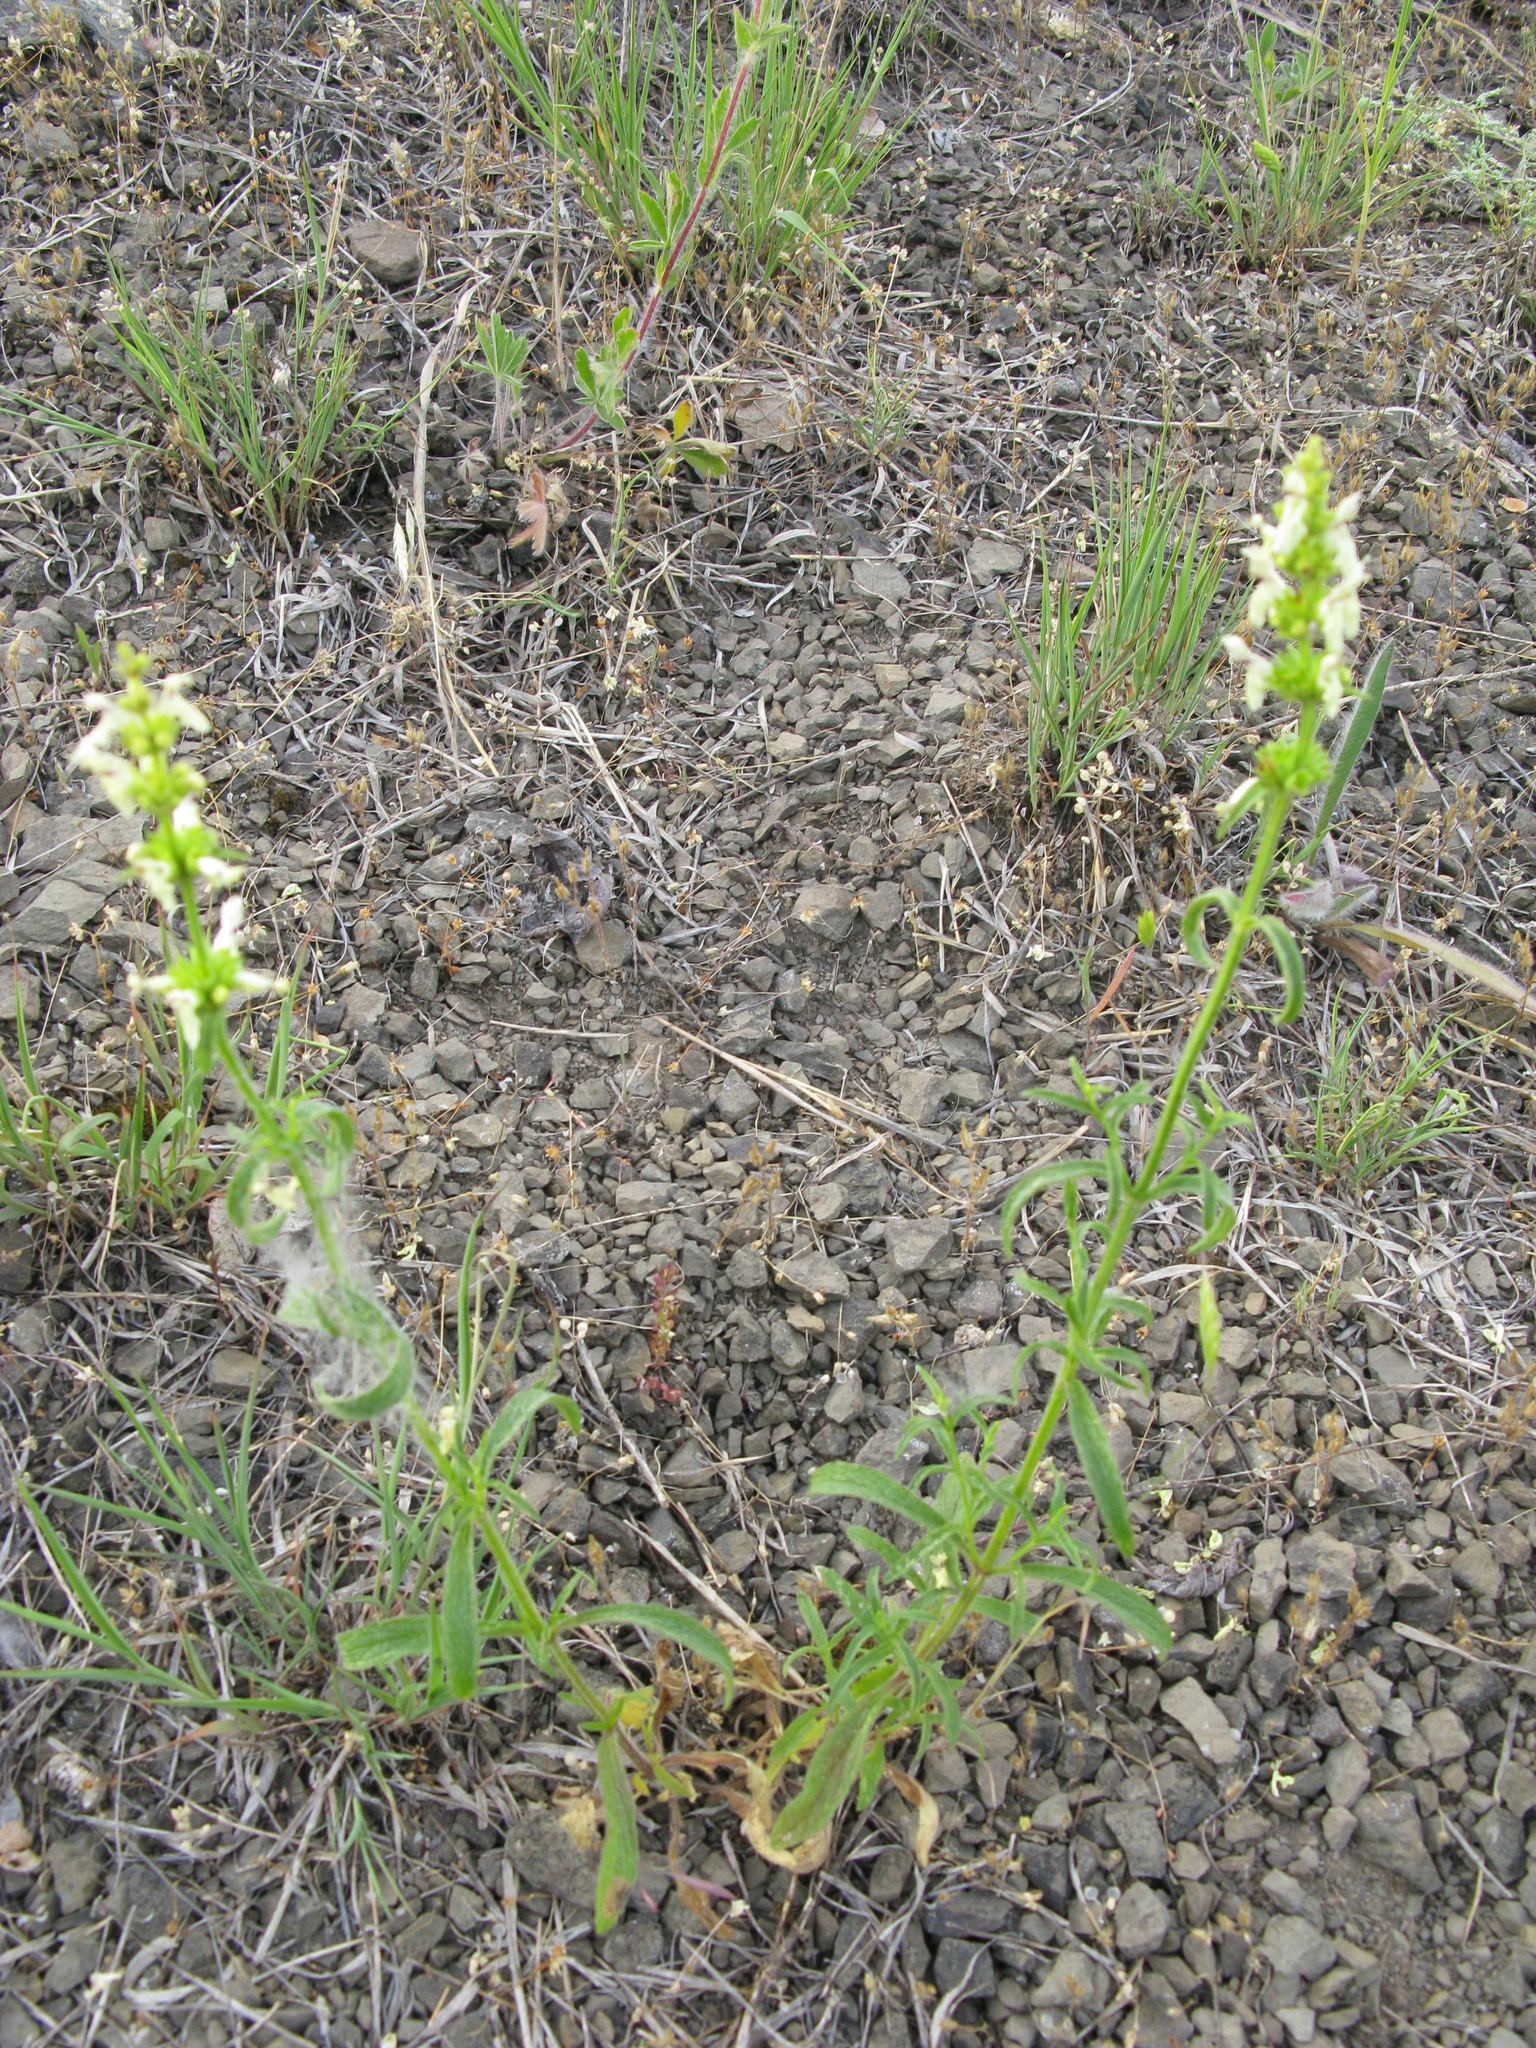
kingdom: Plantae
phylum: Tracheophyta
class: Magnoliopsida
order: Lamiales
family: Lamiaceae
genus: Stachys
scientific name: Stachys recta
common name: Perennial yellow-woundwort
